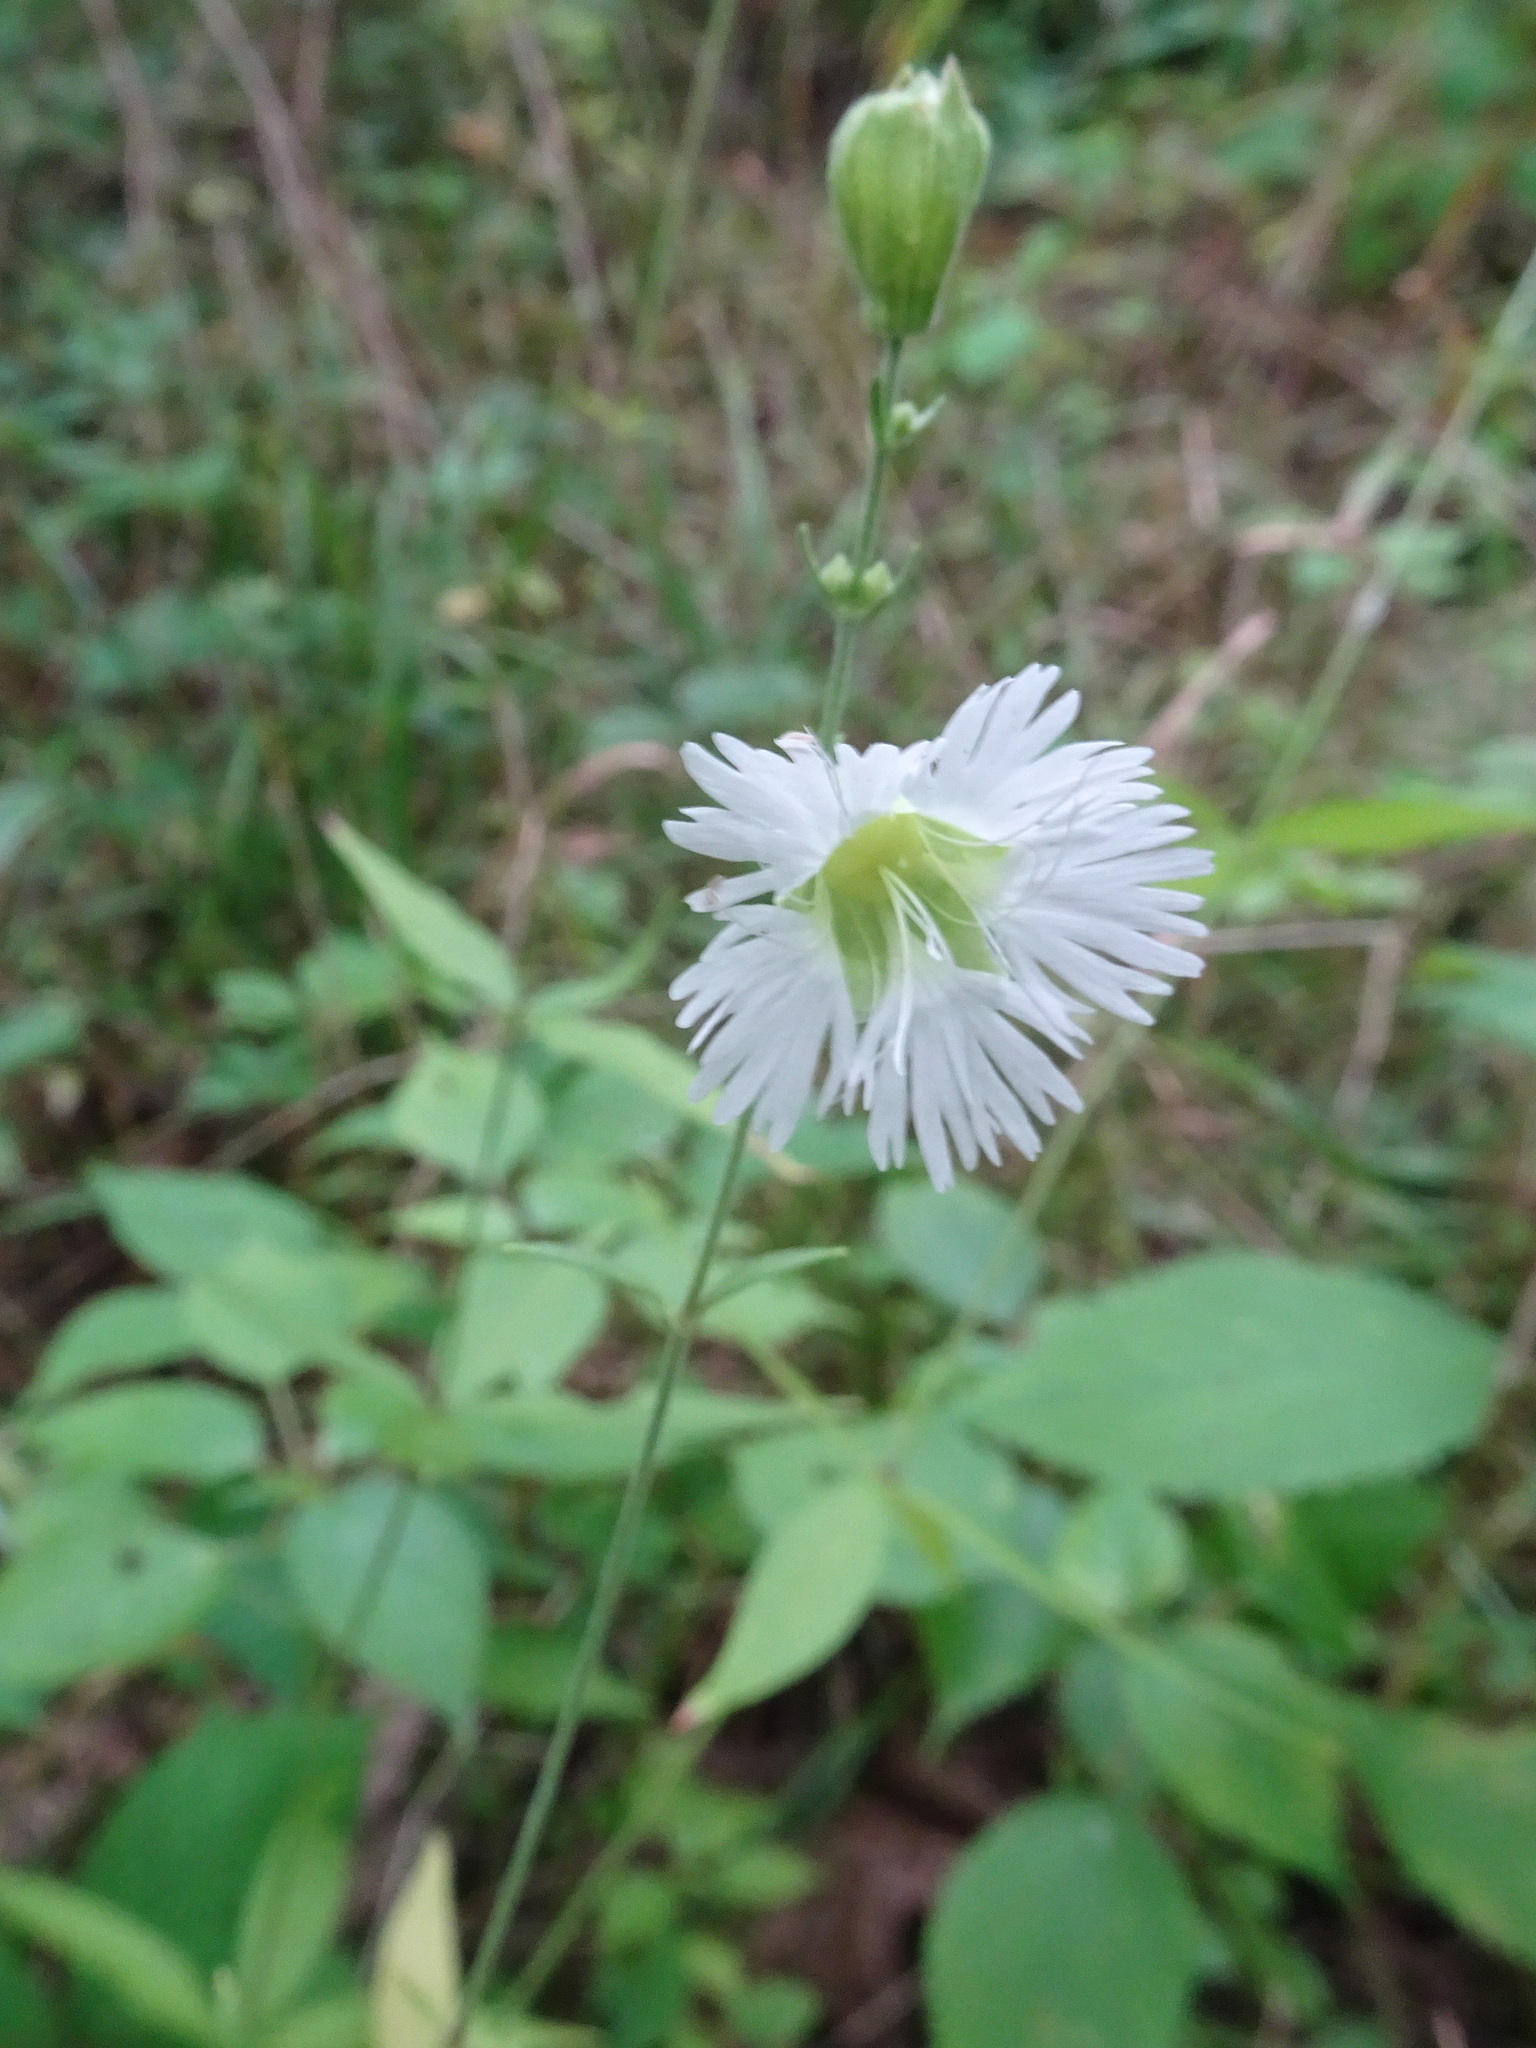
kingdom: Plantae
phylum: Tracheophyta
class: Magnoliopsida
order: Caryophyllales
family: Caryophyllaceae
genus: Silene
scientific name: Silene stellata
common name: Starry campion
